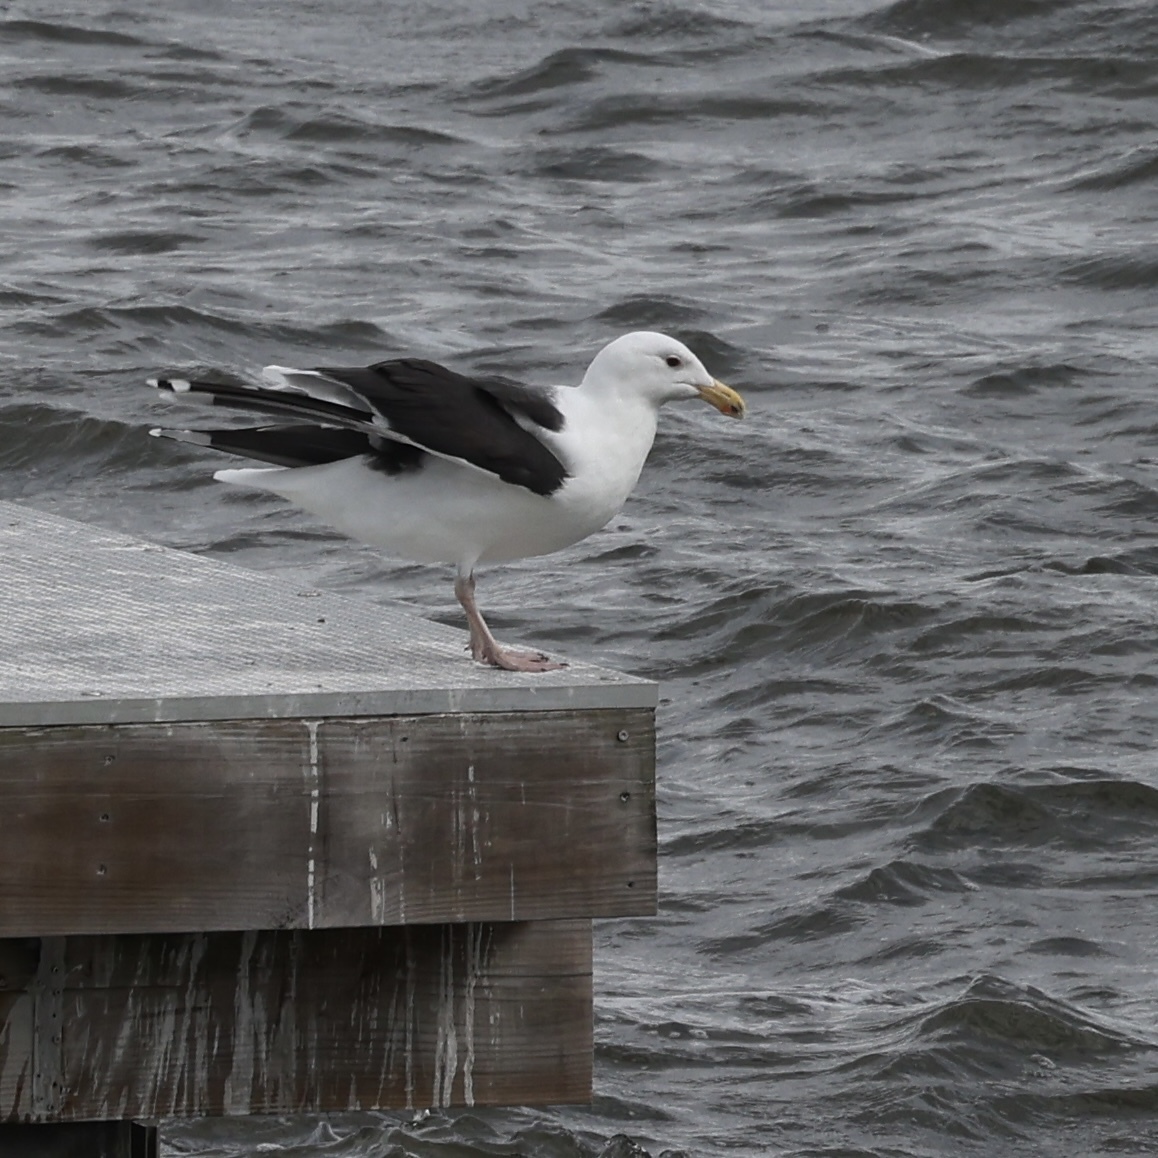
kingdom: Animalia
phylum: Chordata
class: Aves
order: Charadriiformes
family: Laridae
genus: Larus
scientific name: Larus marinus
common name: Great black-backed gull
